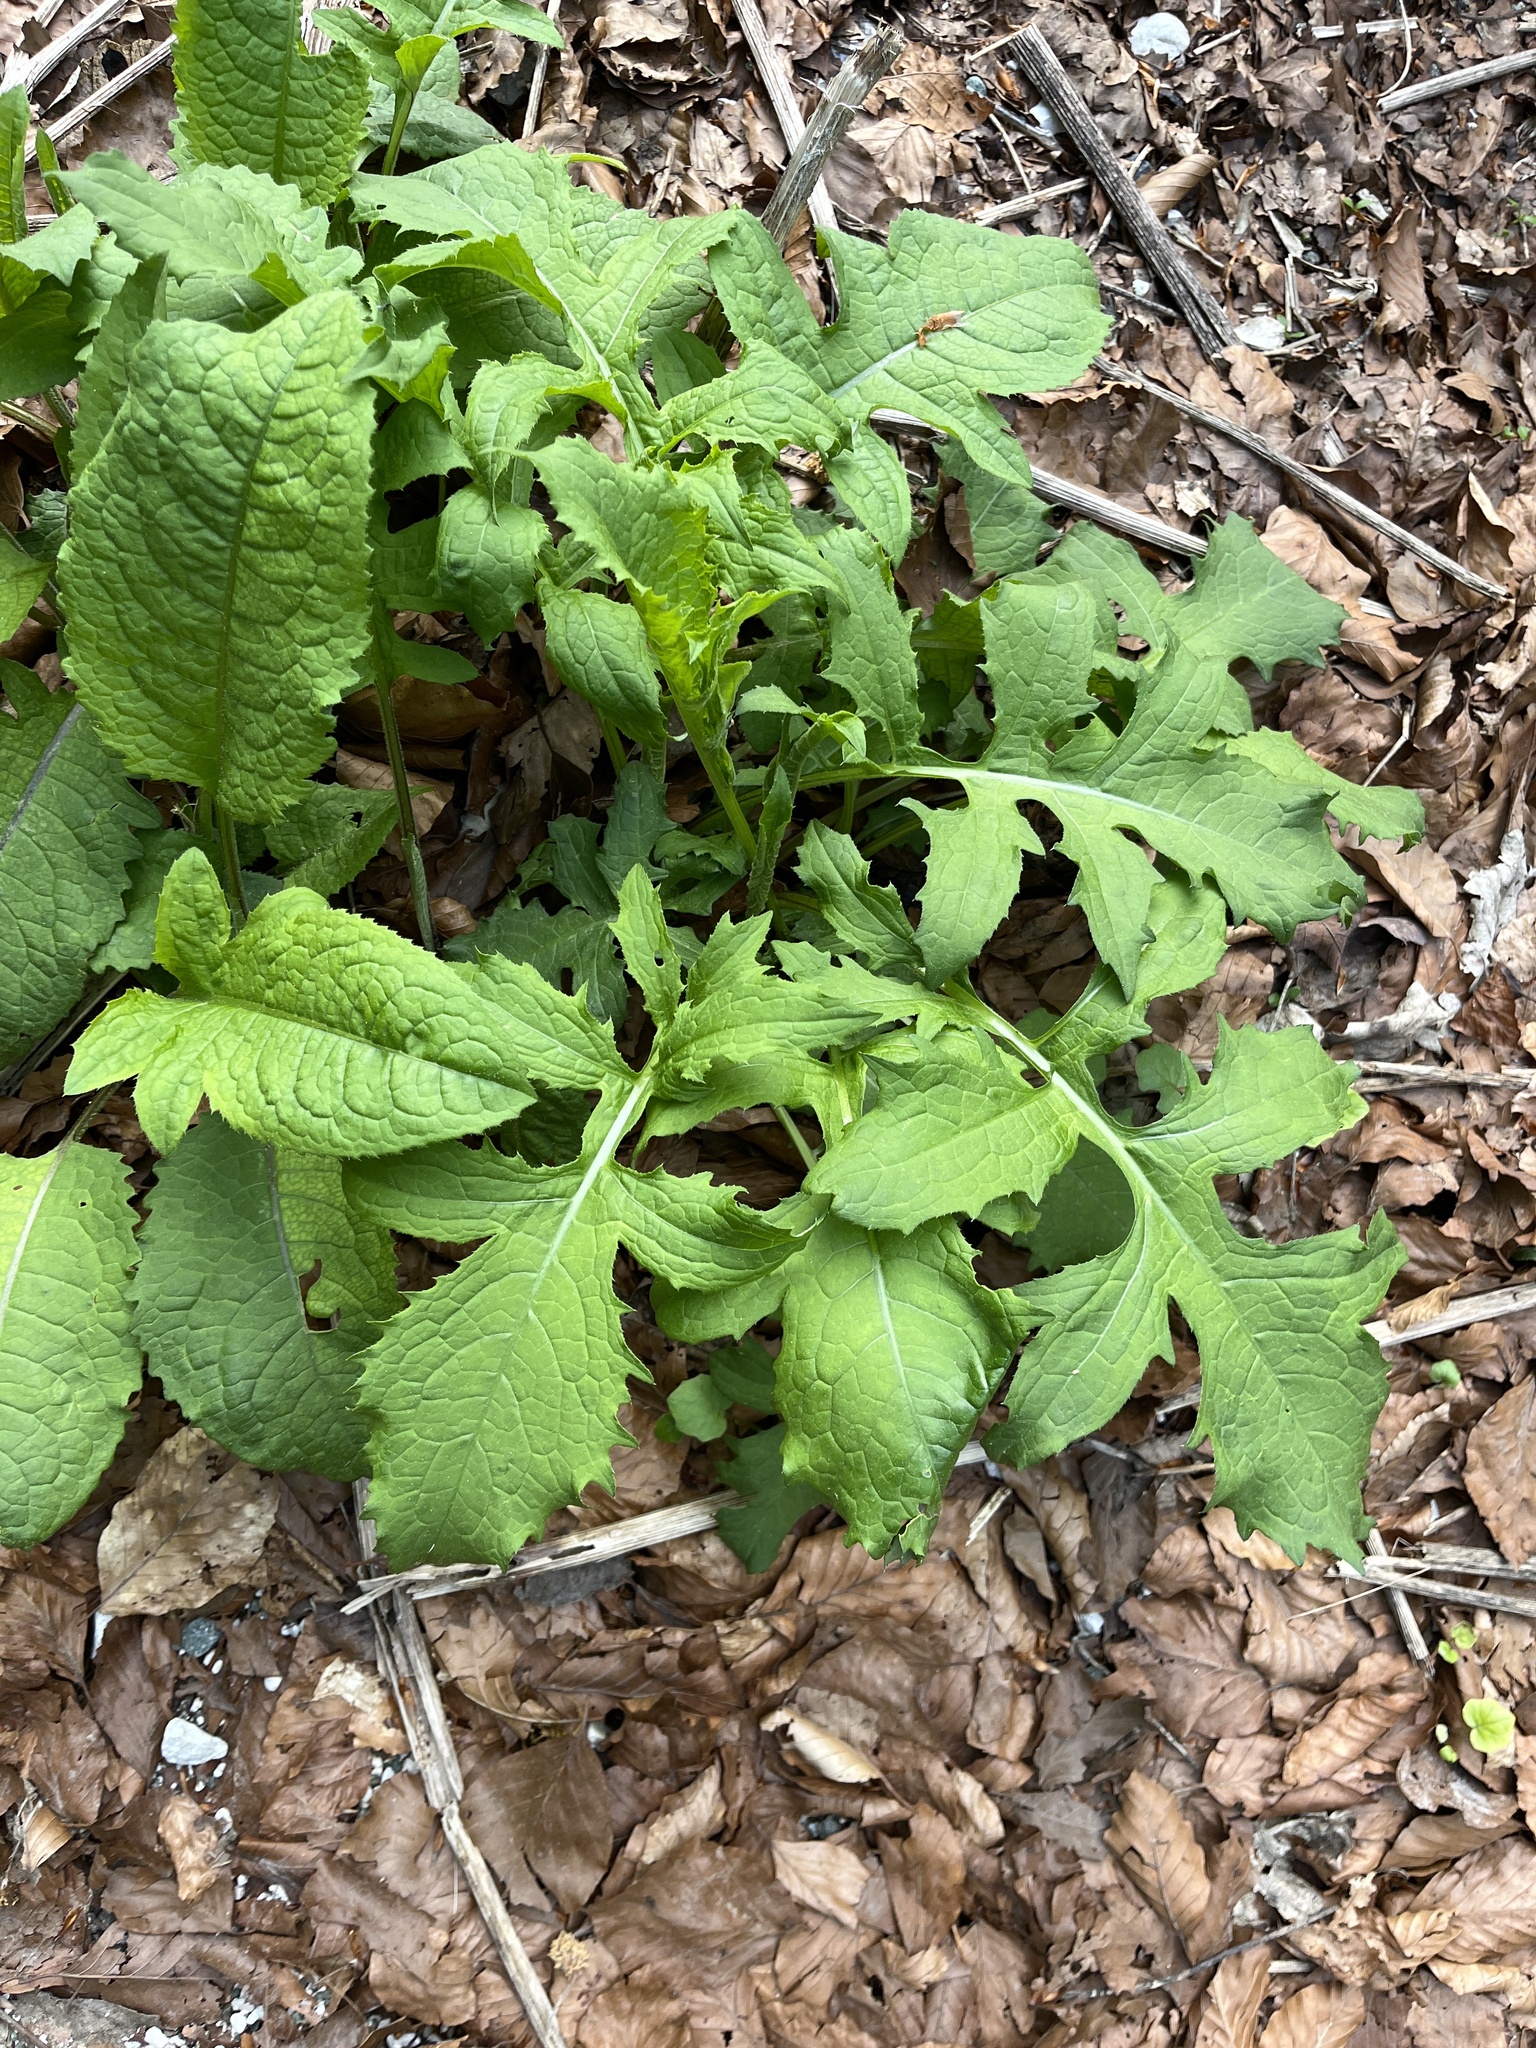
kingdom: Plantae
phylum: Tracheophyta
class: Magnoliopsida
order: Asterales
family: Asteraceae
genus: Cirsium
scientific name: Cirsium oleraceum
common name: Cabbage thistle
